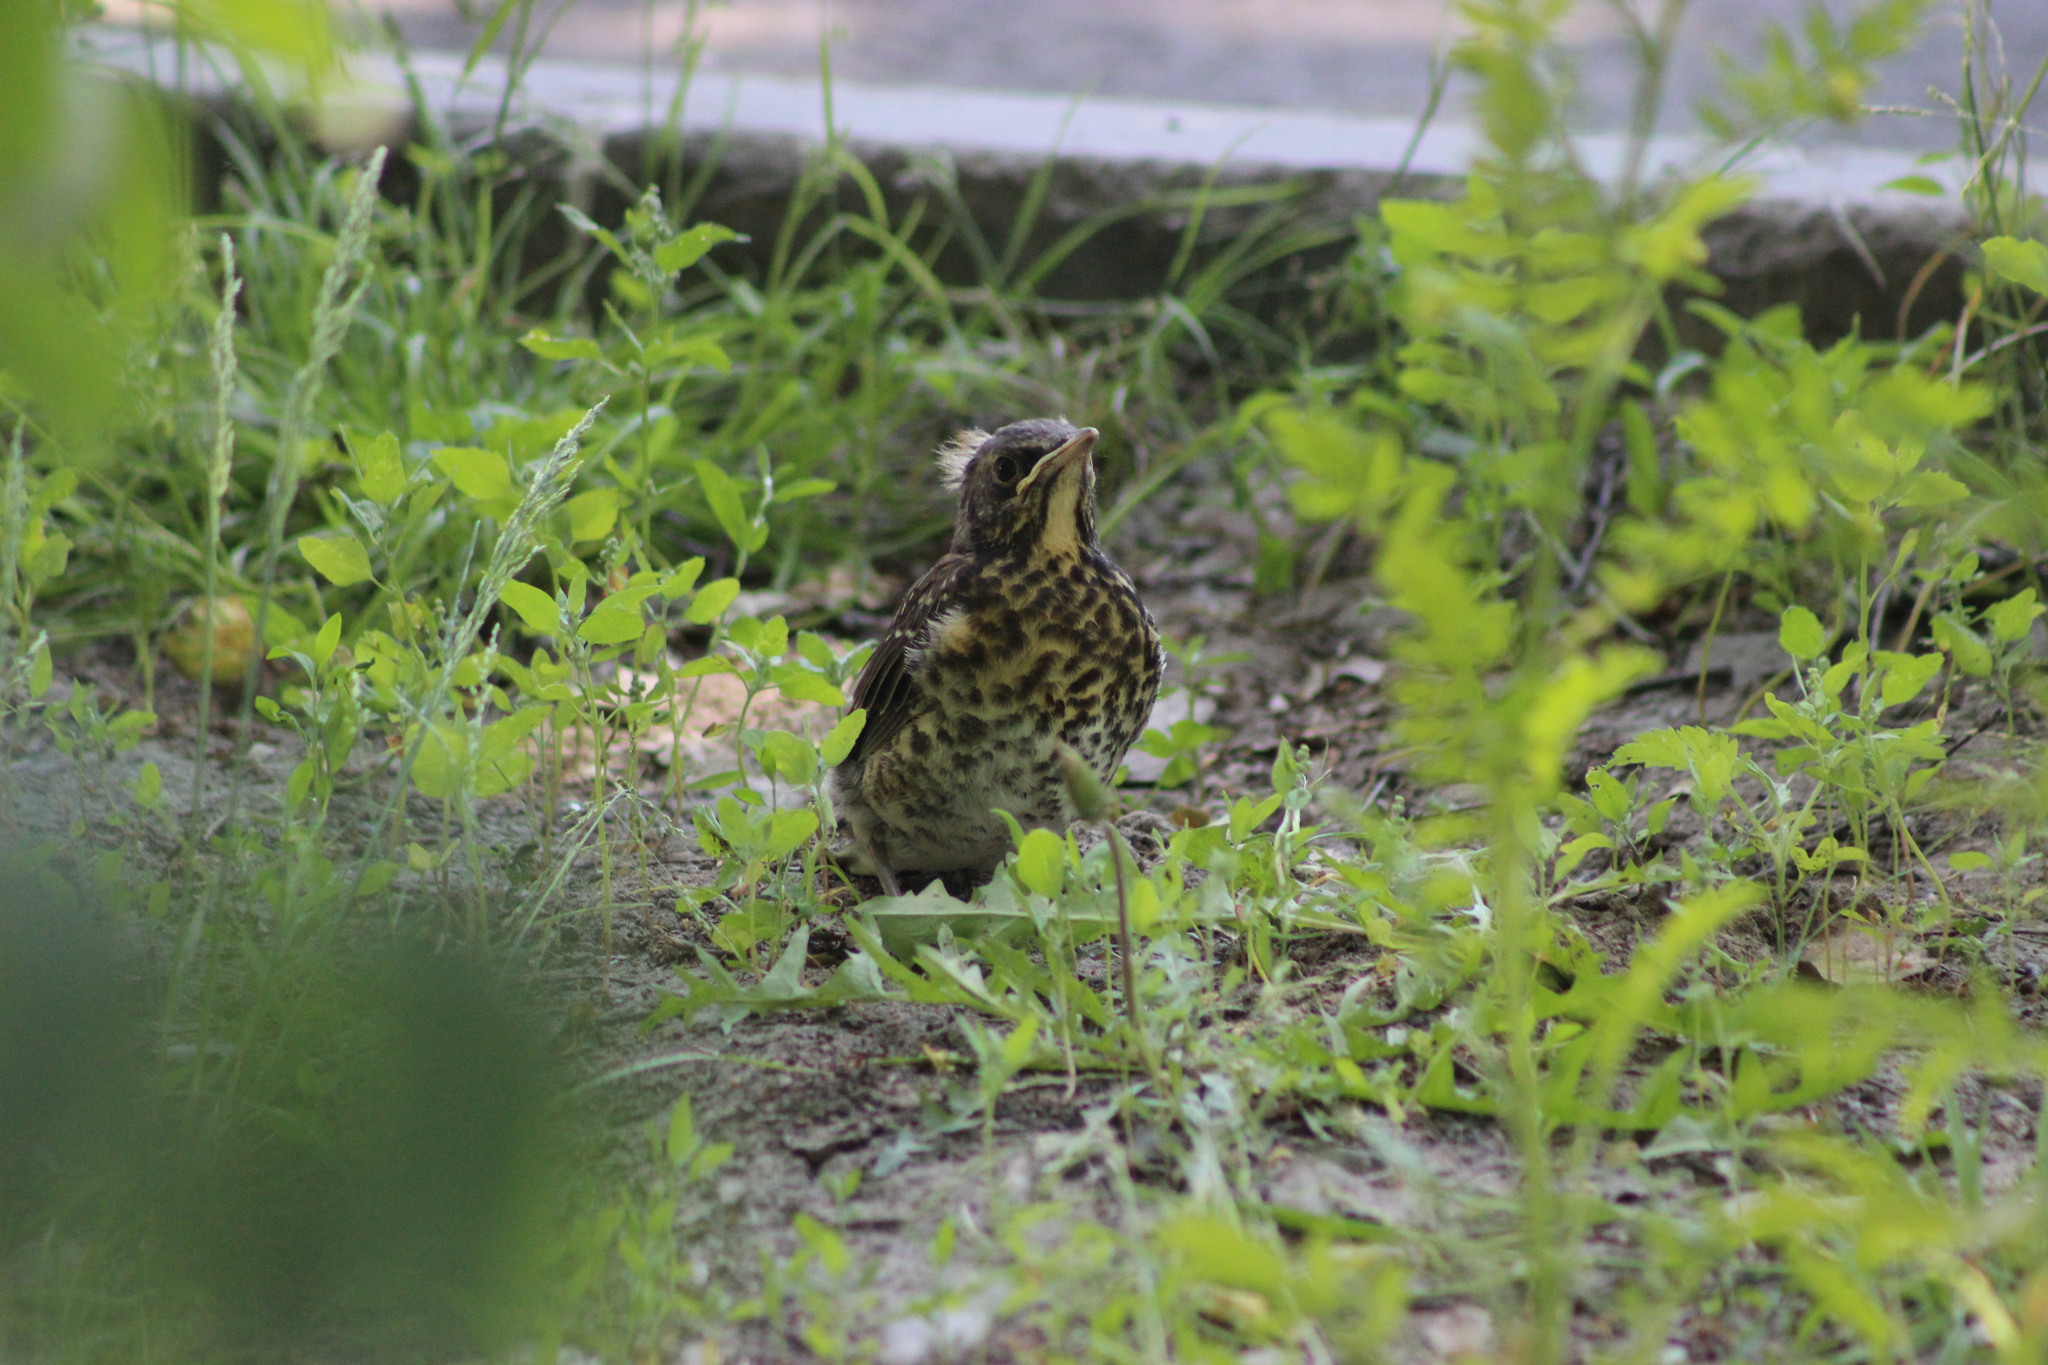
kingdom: Animalia
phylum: Chordata
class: Aves
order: Passeriformes
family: Turdidae
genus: Turdus
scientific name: Turdus pilaris
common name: Fieldfare
